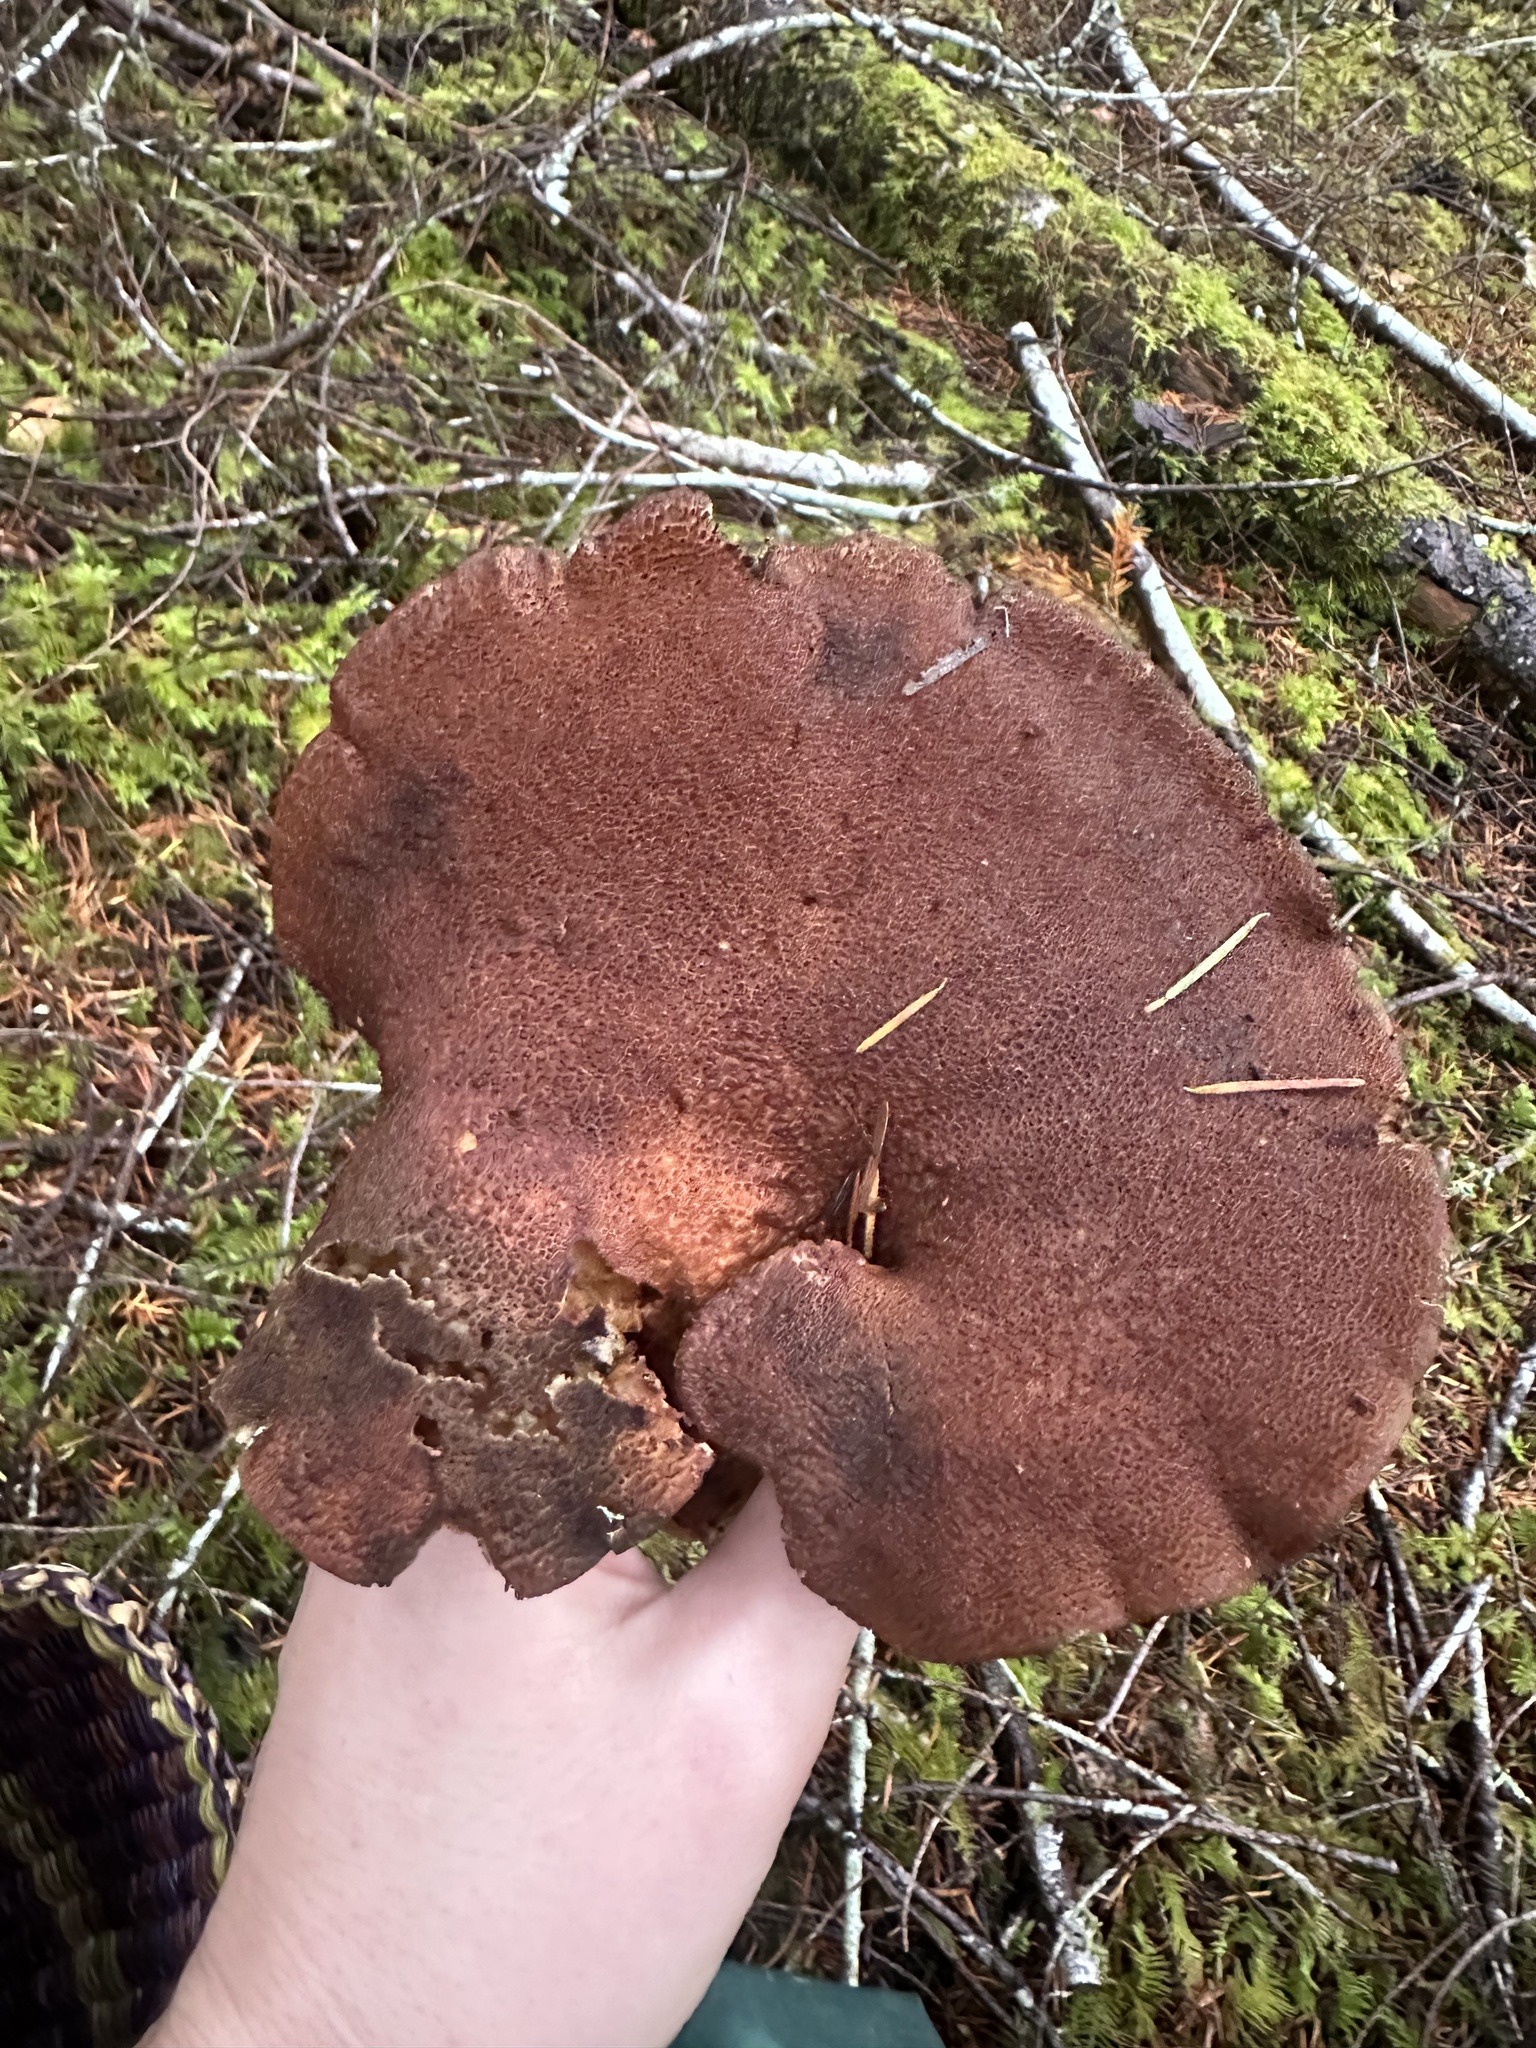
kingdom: Fungi
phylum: Basidiomycota
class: Agaricomycetes
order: Polyporales
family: Dacryobolaceae
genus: Jahnoporus
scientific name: Jahnoporus hirtus
